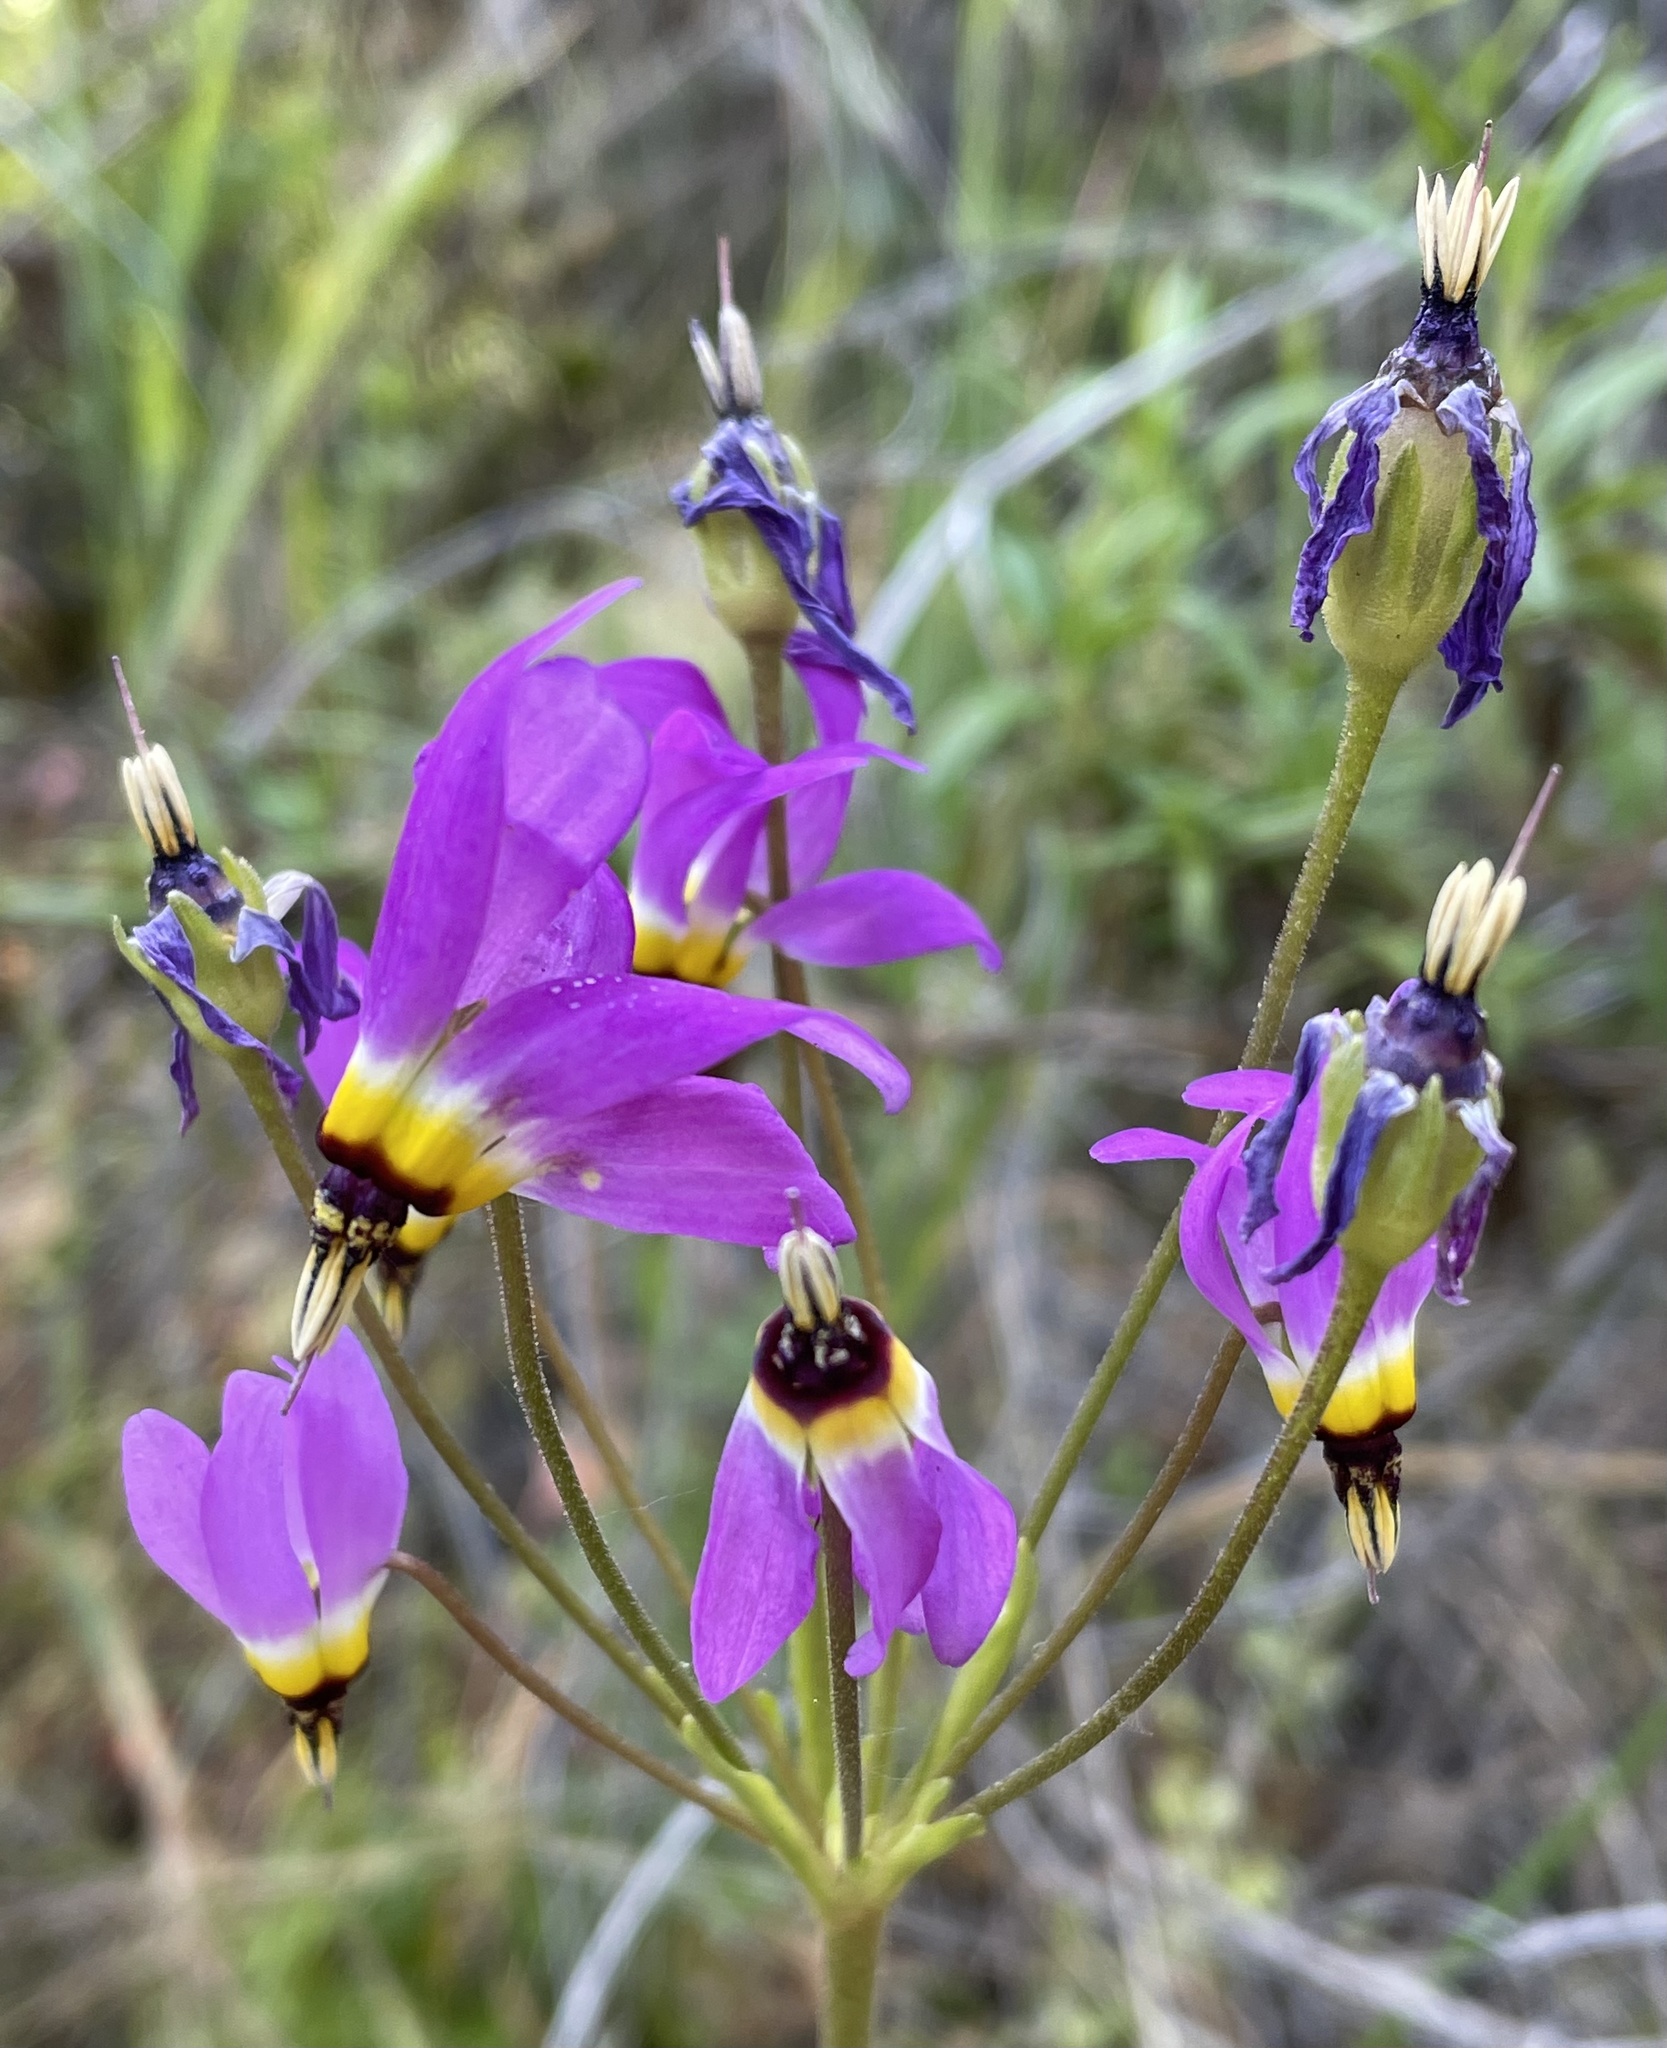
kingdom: Plantae
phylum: Tracheophyta
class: Magnoliopsida
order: Ericales
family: Primulaceae
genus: Dodecatheon
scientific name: Dodecatheon clevelandii
